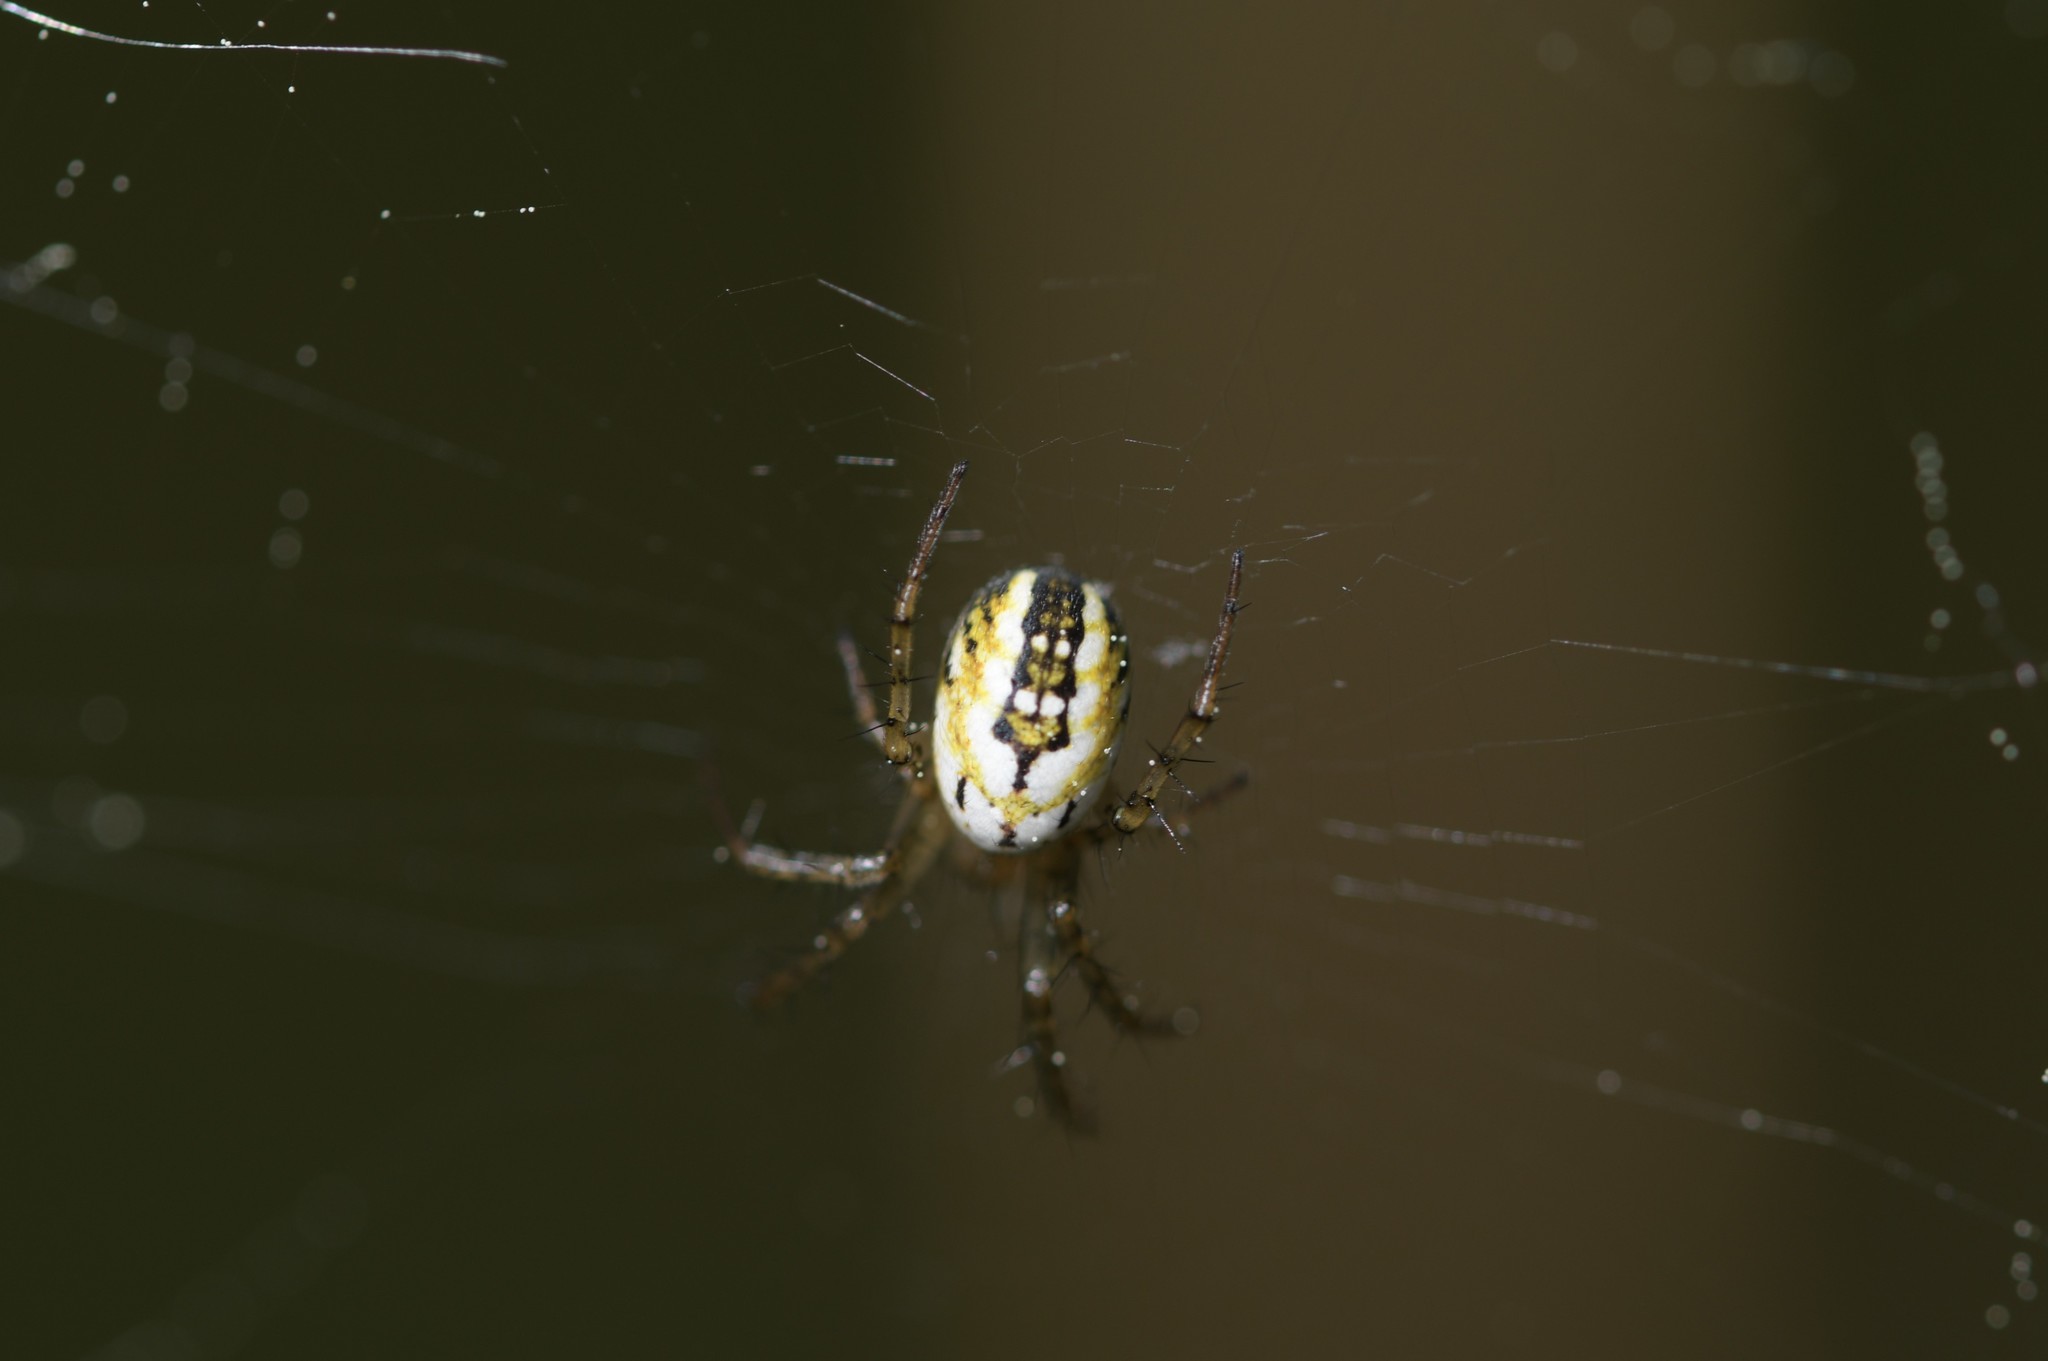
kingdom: Animalia
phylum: Arthropoda
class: Arachnida
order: Araneae
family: Araneidae
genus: Mangora
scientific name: Mangora acalypha
